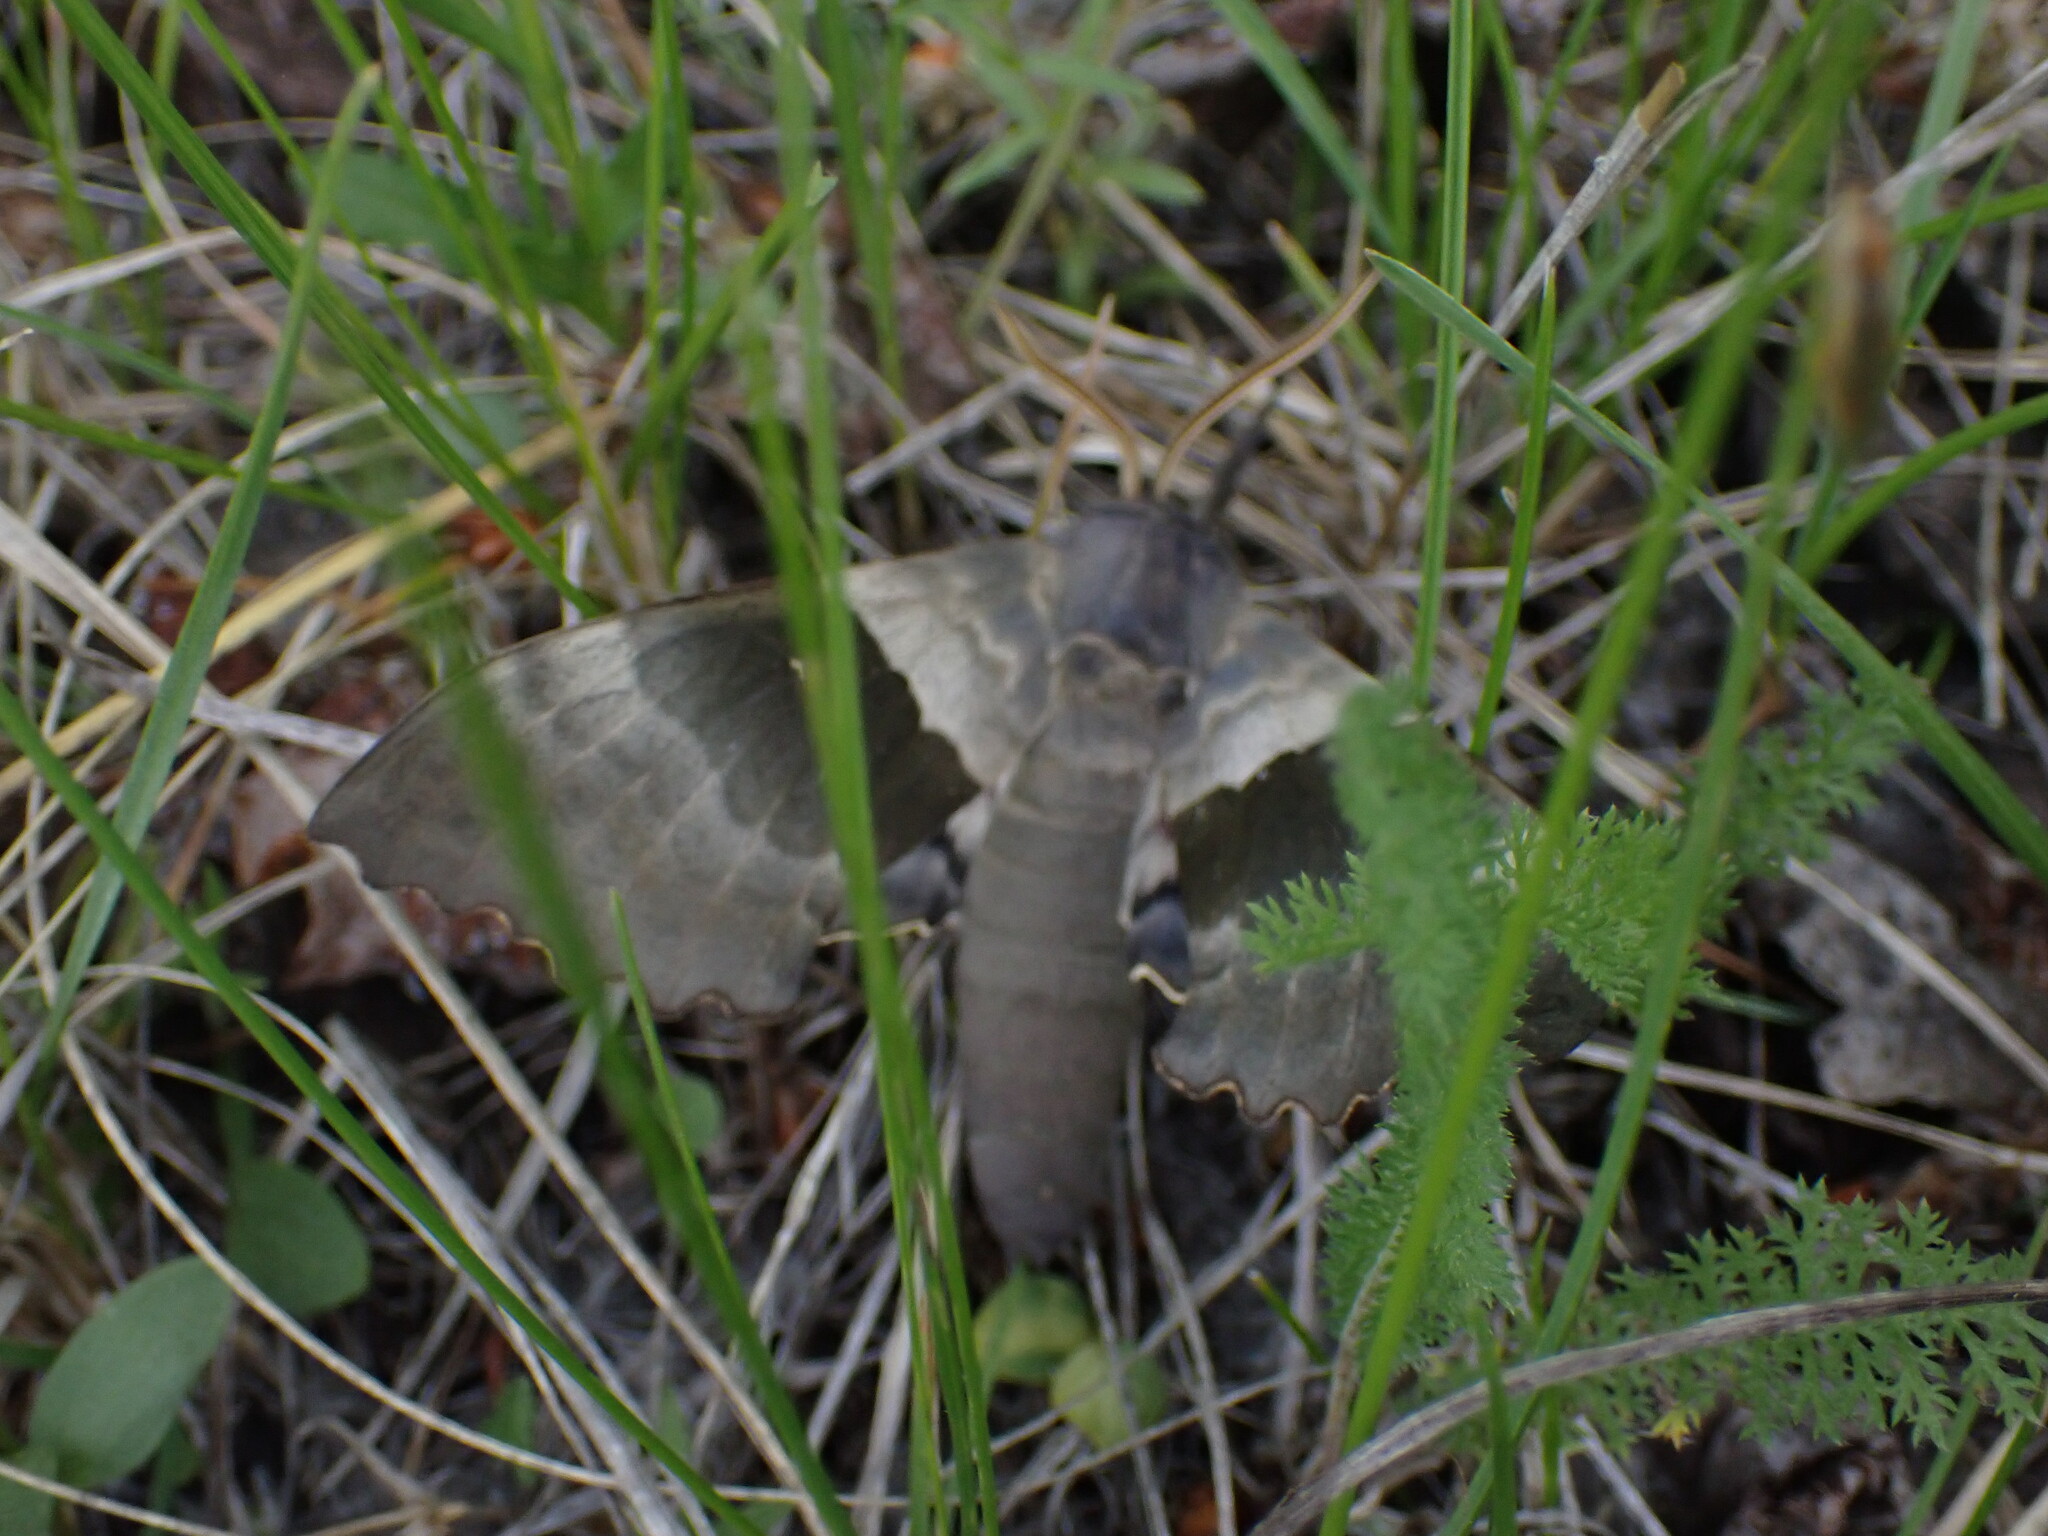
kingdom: Animalia
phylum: Arthropoda
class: Insecta
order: Lepidoptera
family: Sphingidae
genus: Pachysphinx
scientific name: Pachysphinx modesta
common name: Big poplar sphinx
